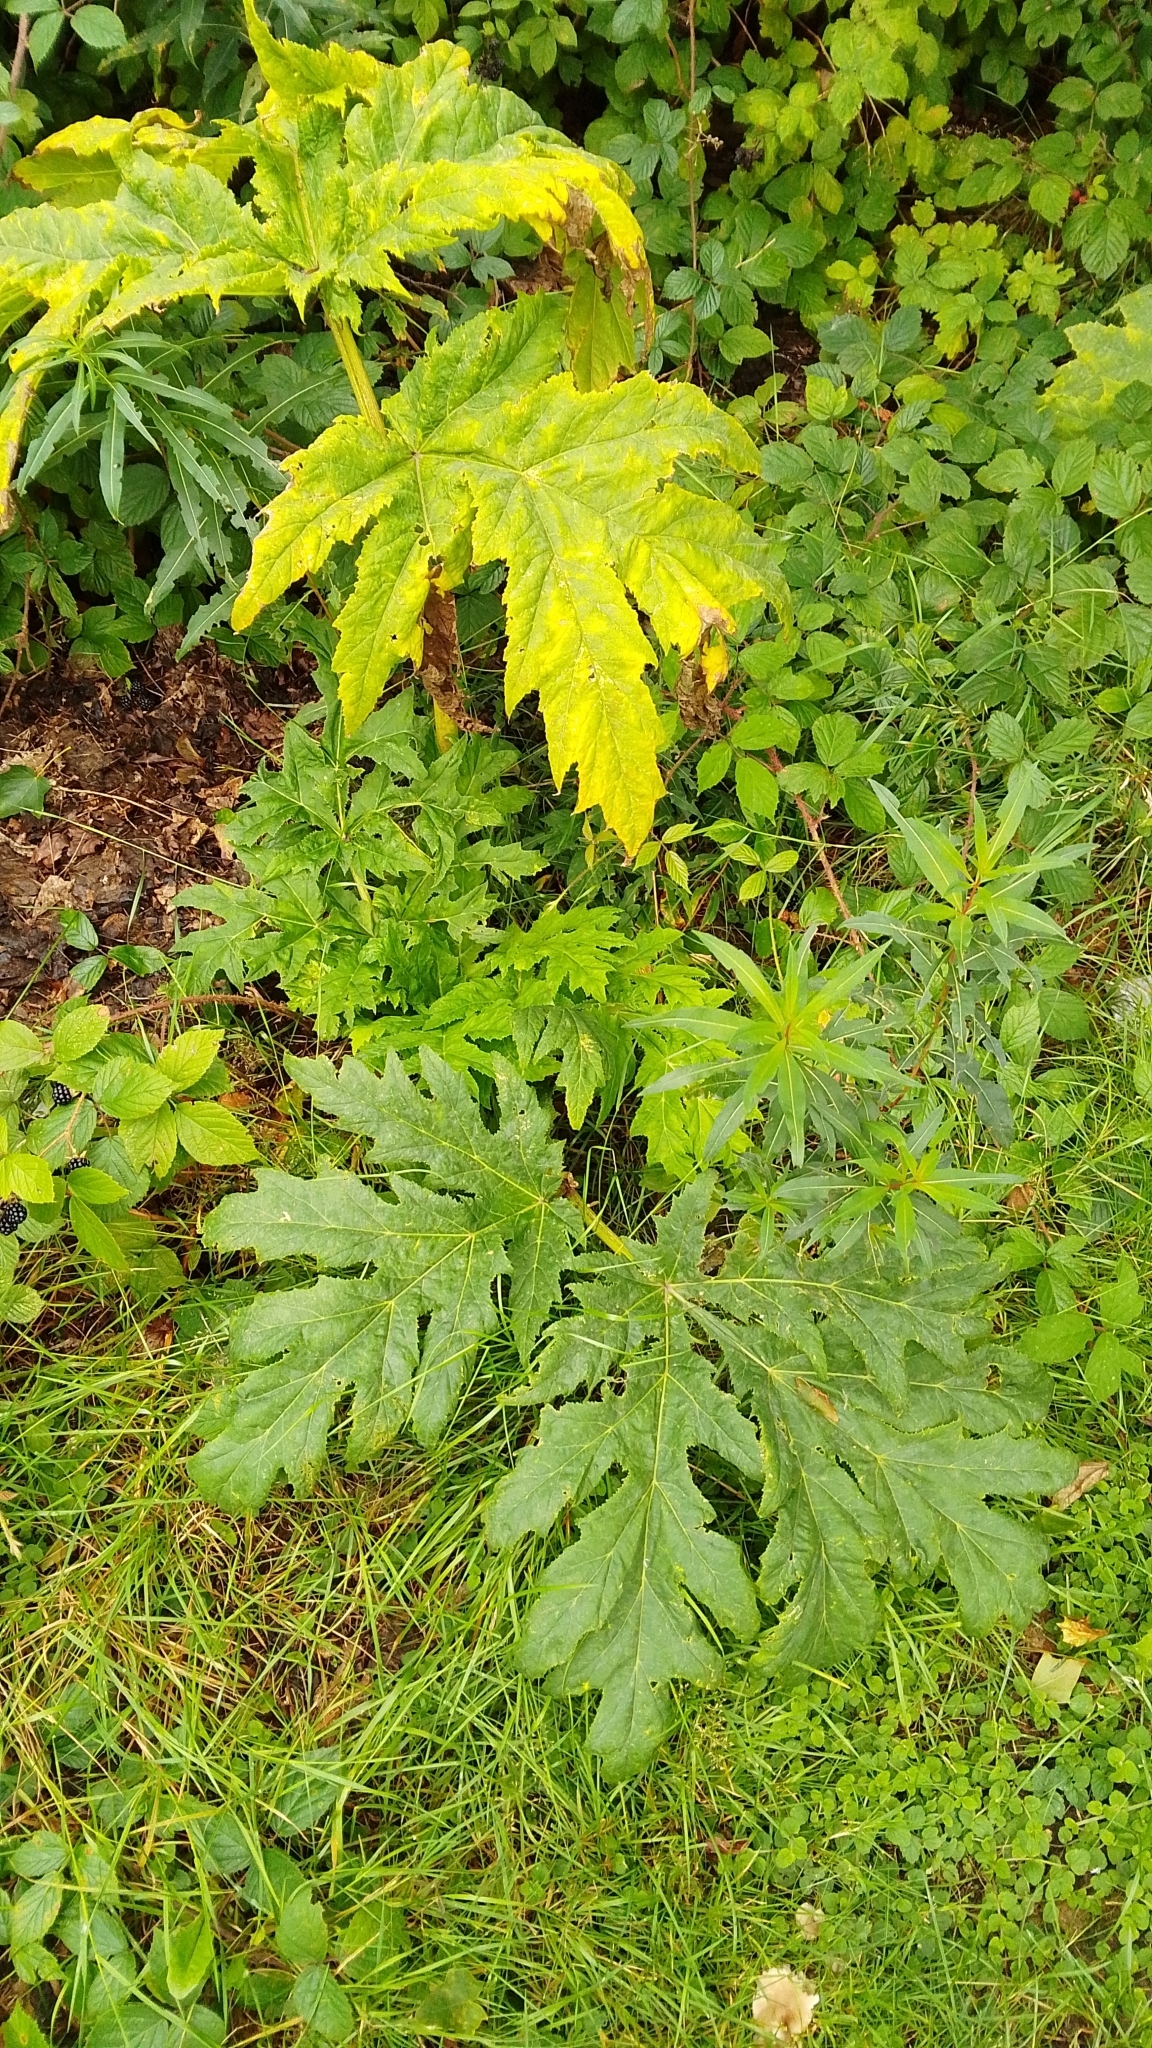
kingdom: Plantae
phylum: Tracheophyta
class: Magnoliopsida
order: Apiales
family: Apiaceae
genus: Heracleum
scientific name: Heracleum mantegazzianum
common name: Giant hogweed
